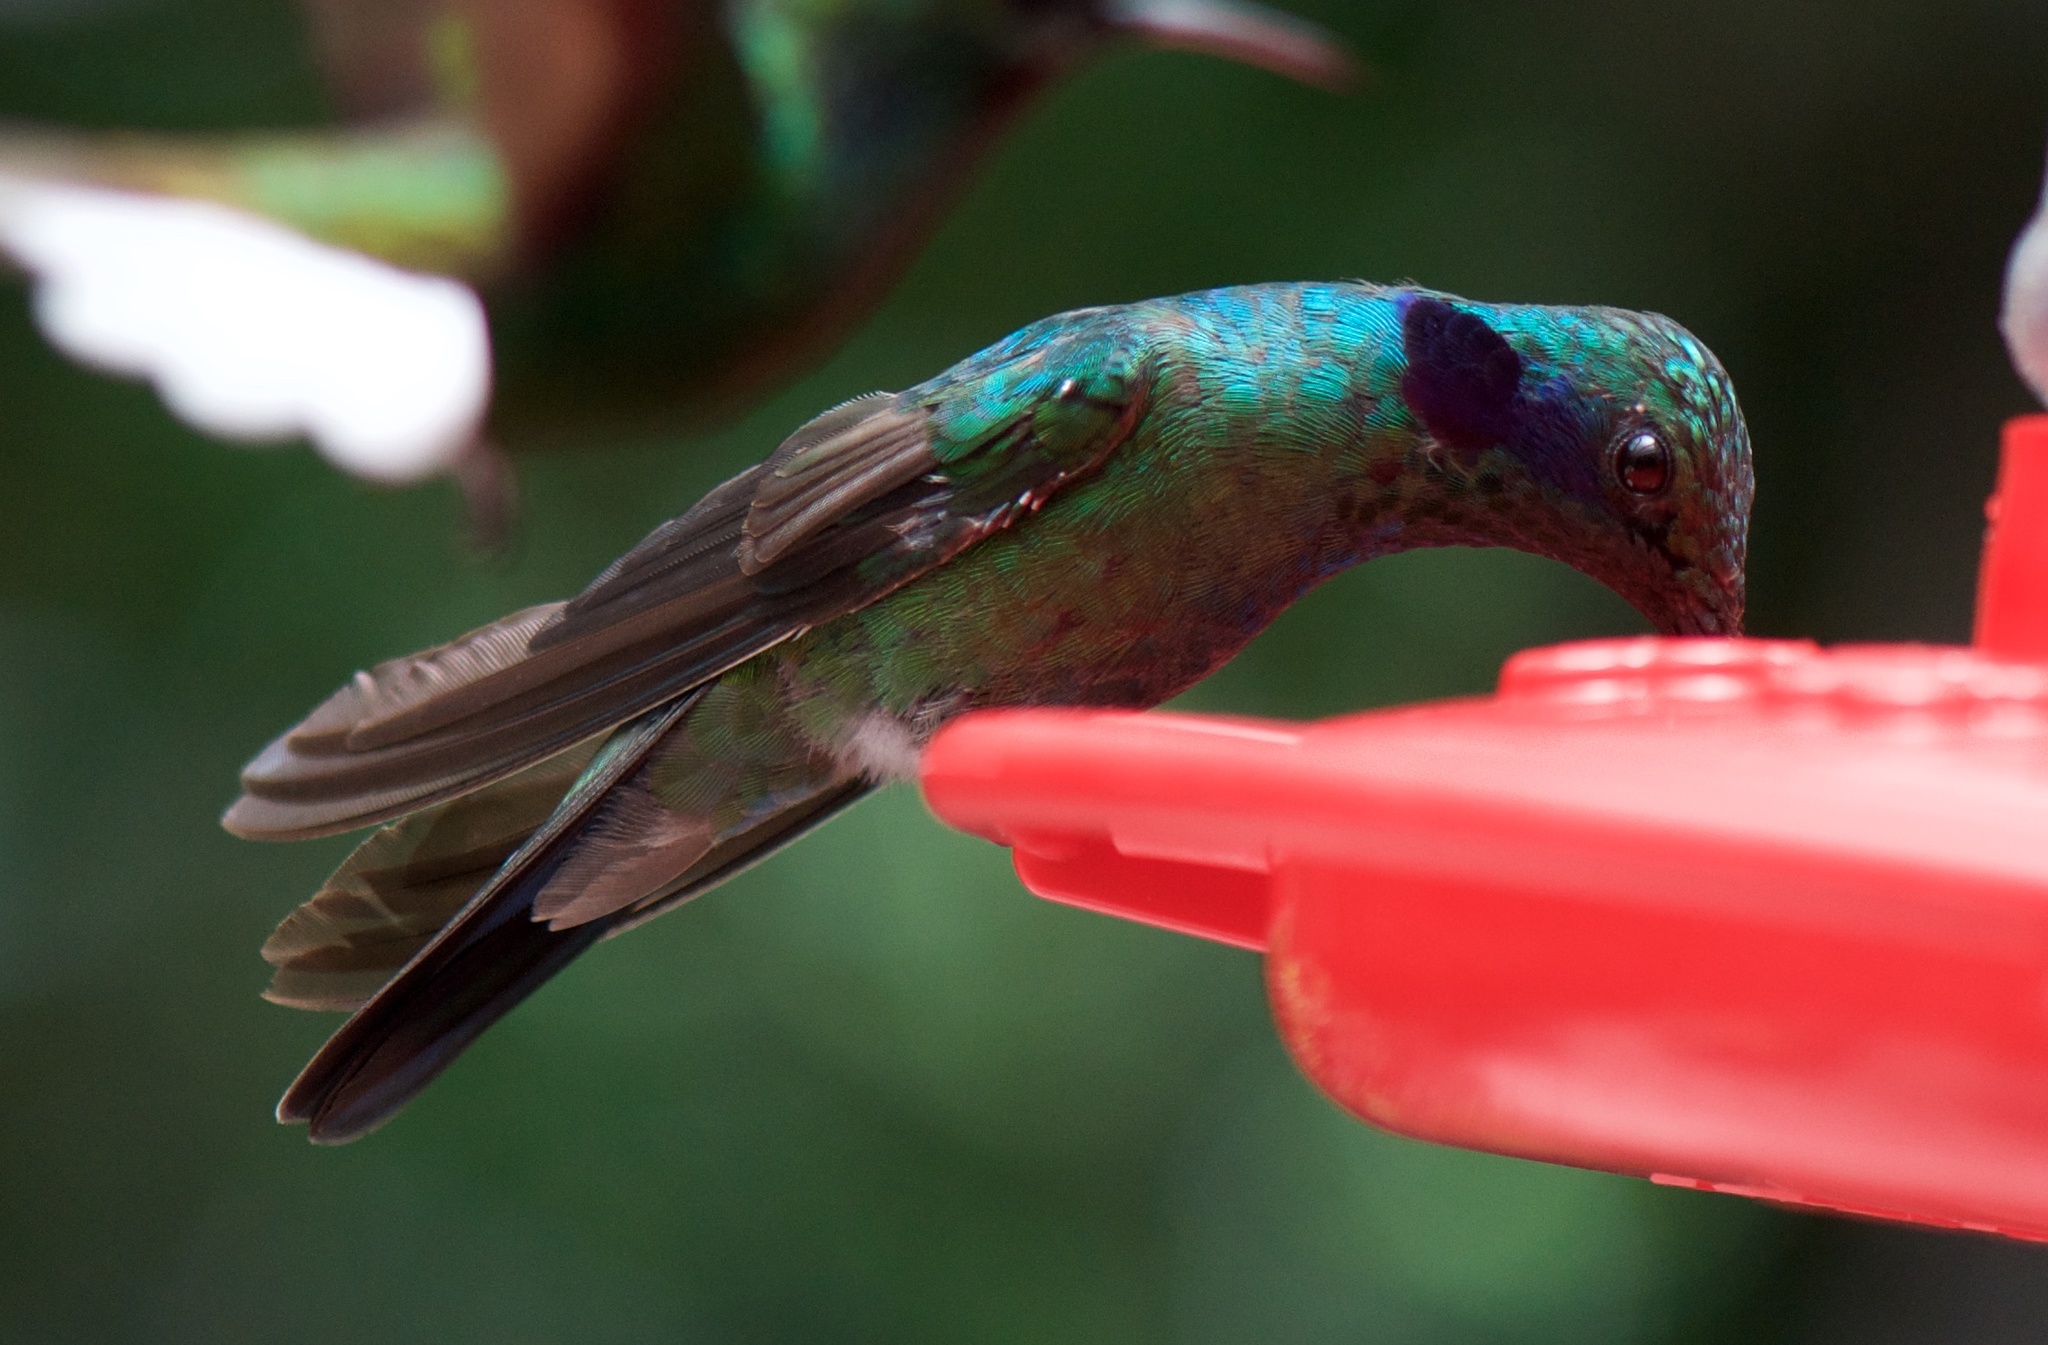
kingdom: Animalia
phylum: Chordata
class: Aves
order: Apodiformes
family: Trochilidae
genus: Colibri
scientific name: Colibri cyanotus
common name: Lesser violetear
